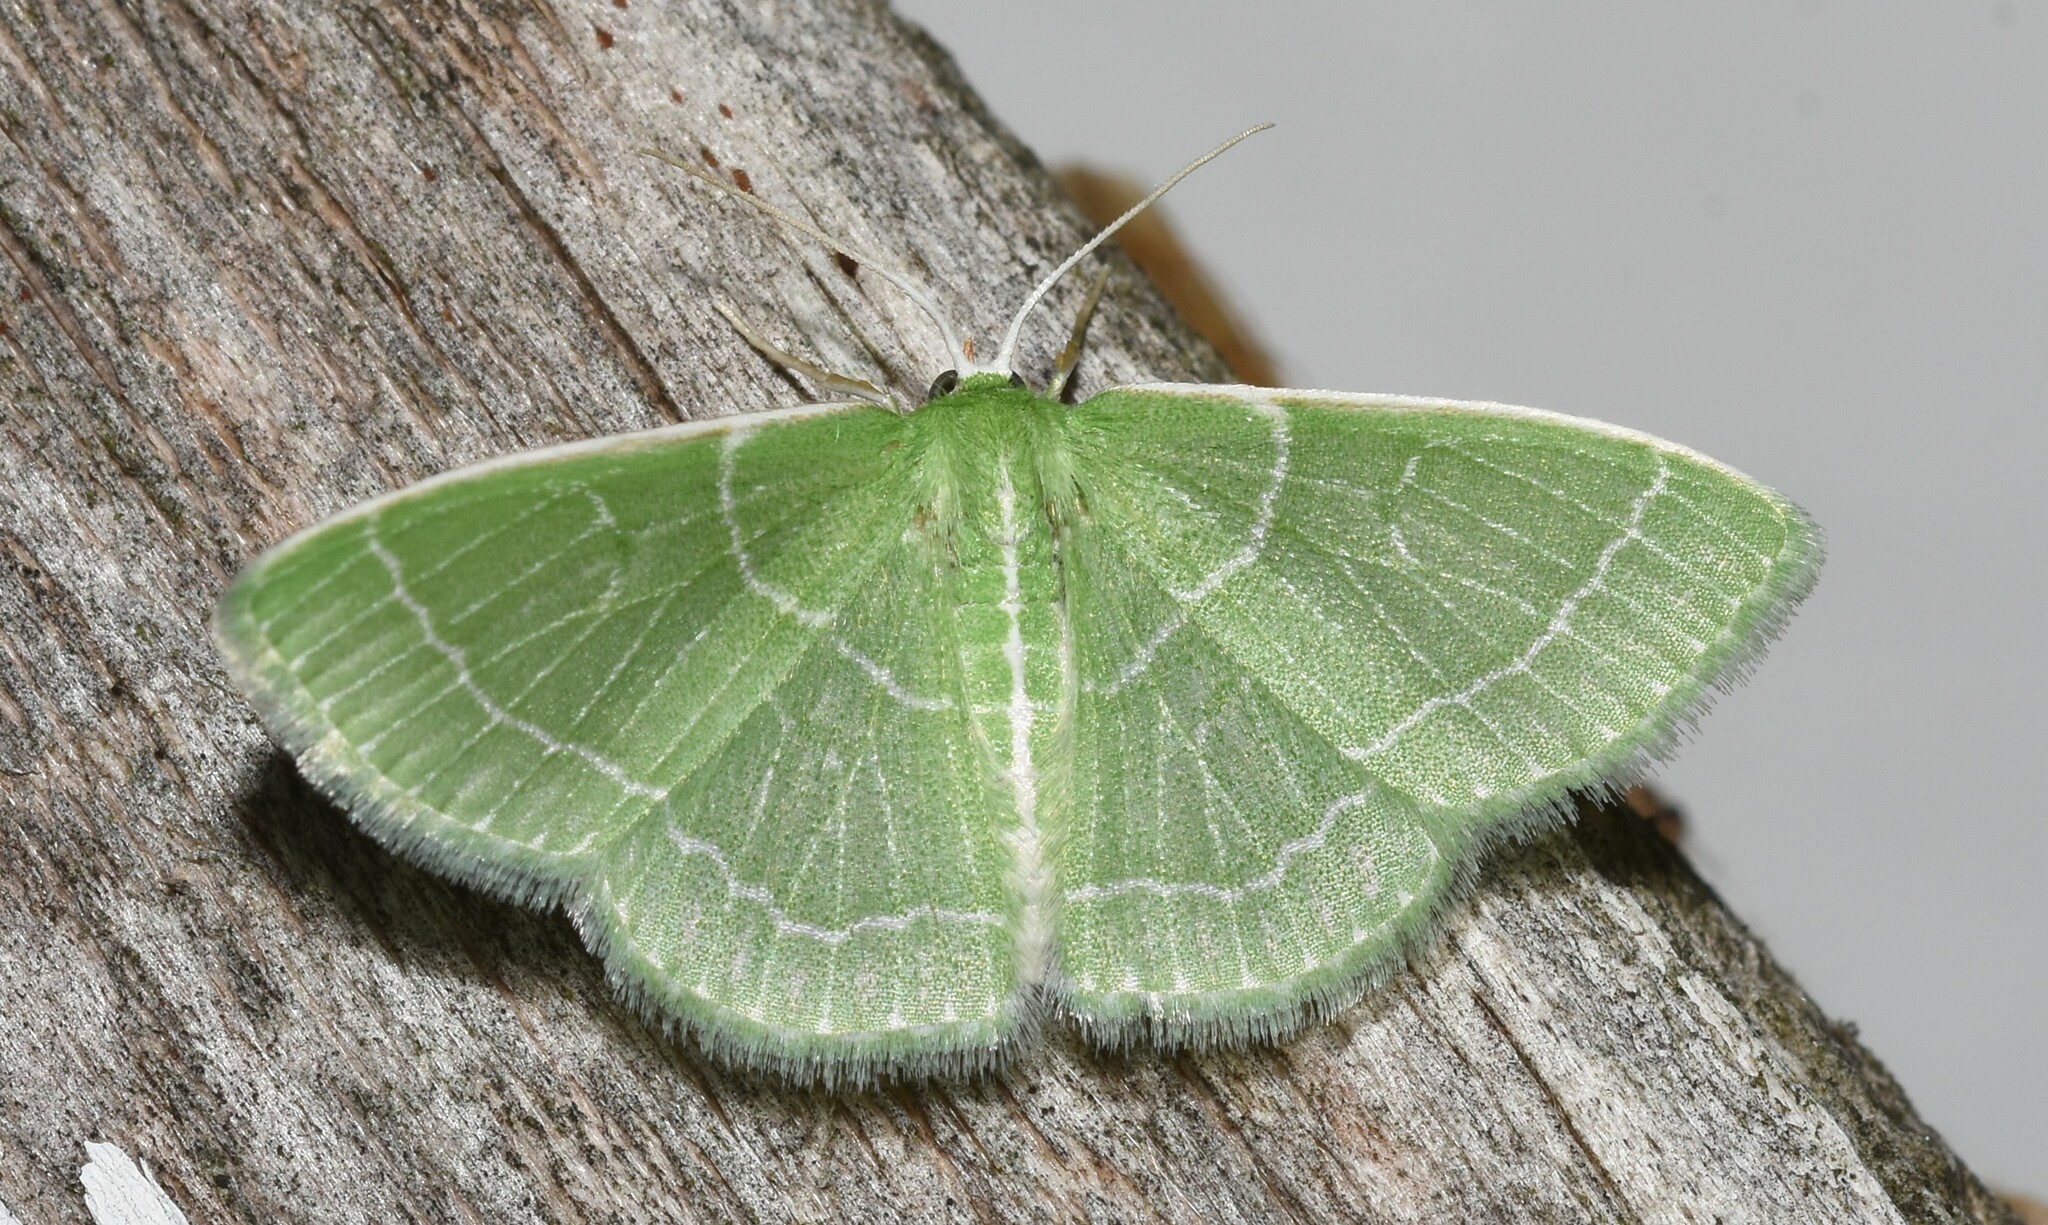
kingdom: Animalia
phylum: Arthropoda
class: Insecta
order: Lepidoptera
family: Geometridae
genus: Synchlora
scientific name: Synchlora aerata
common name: Wavy-lined emerald
